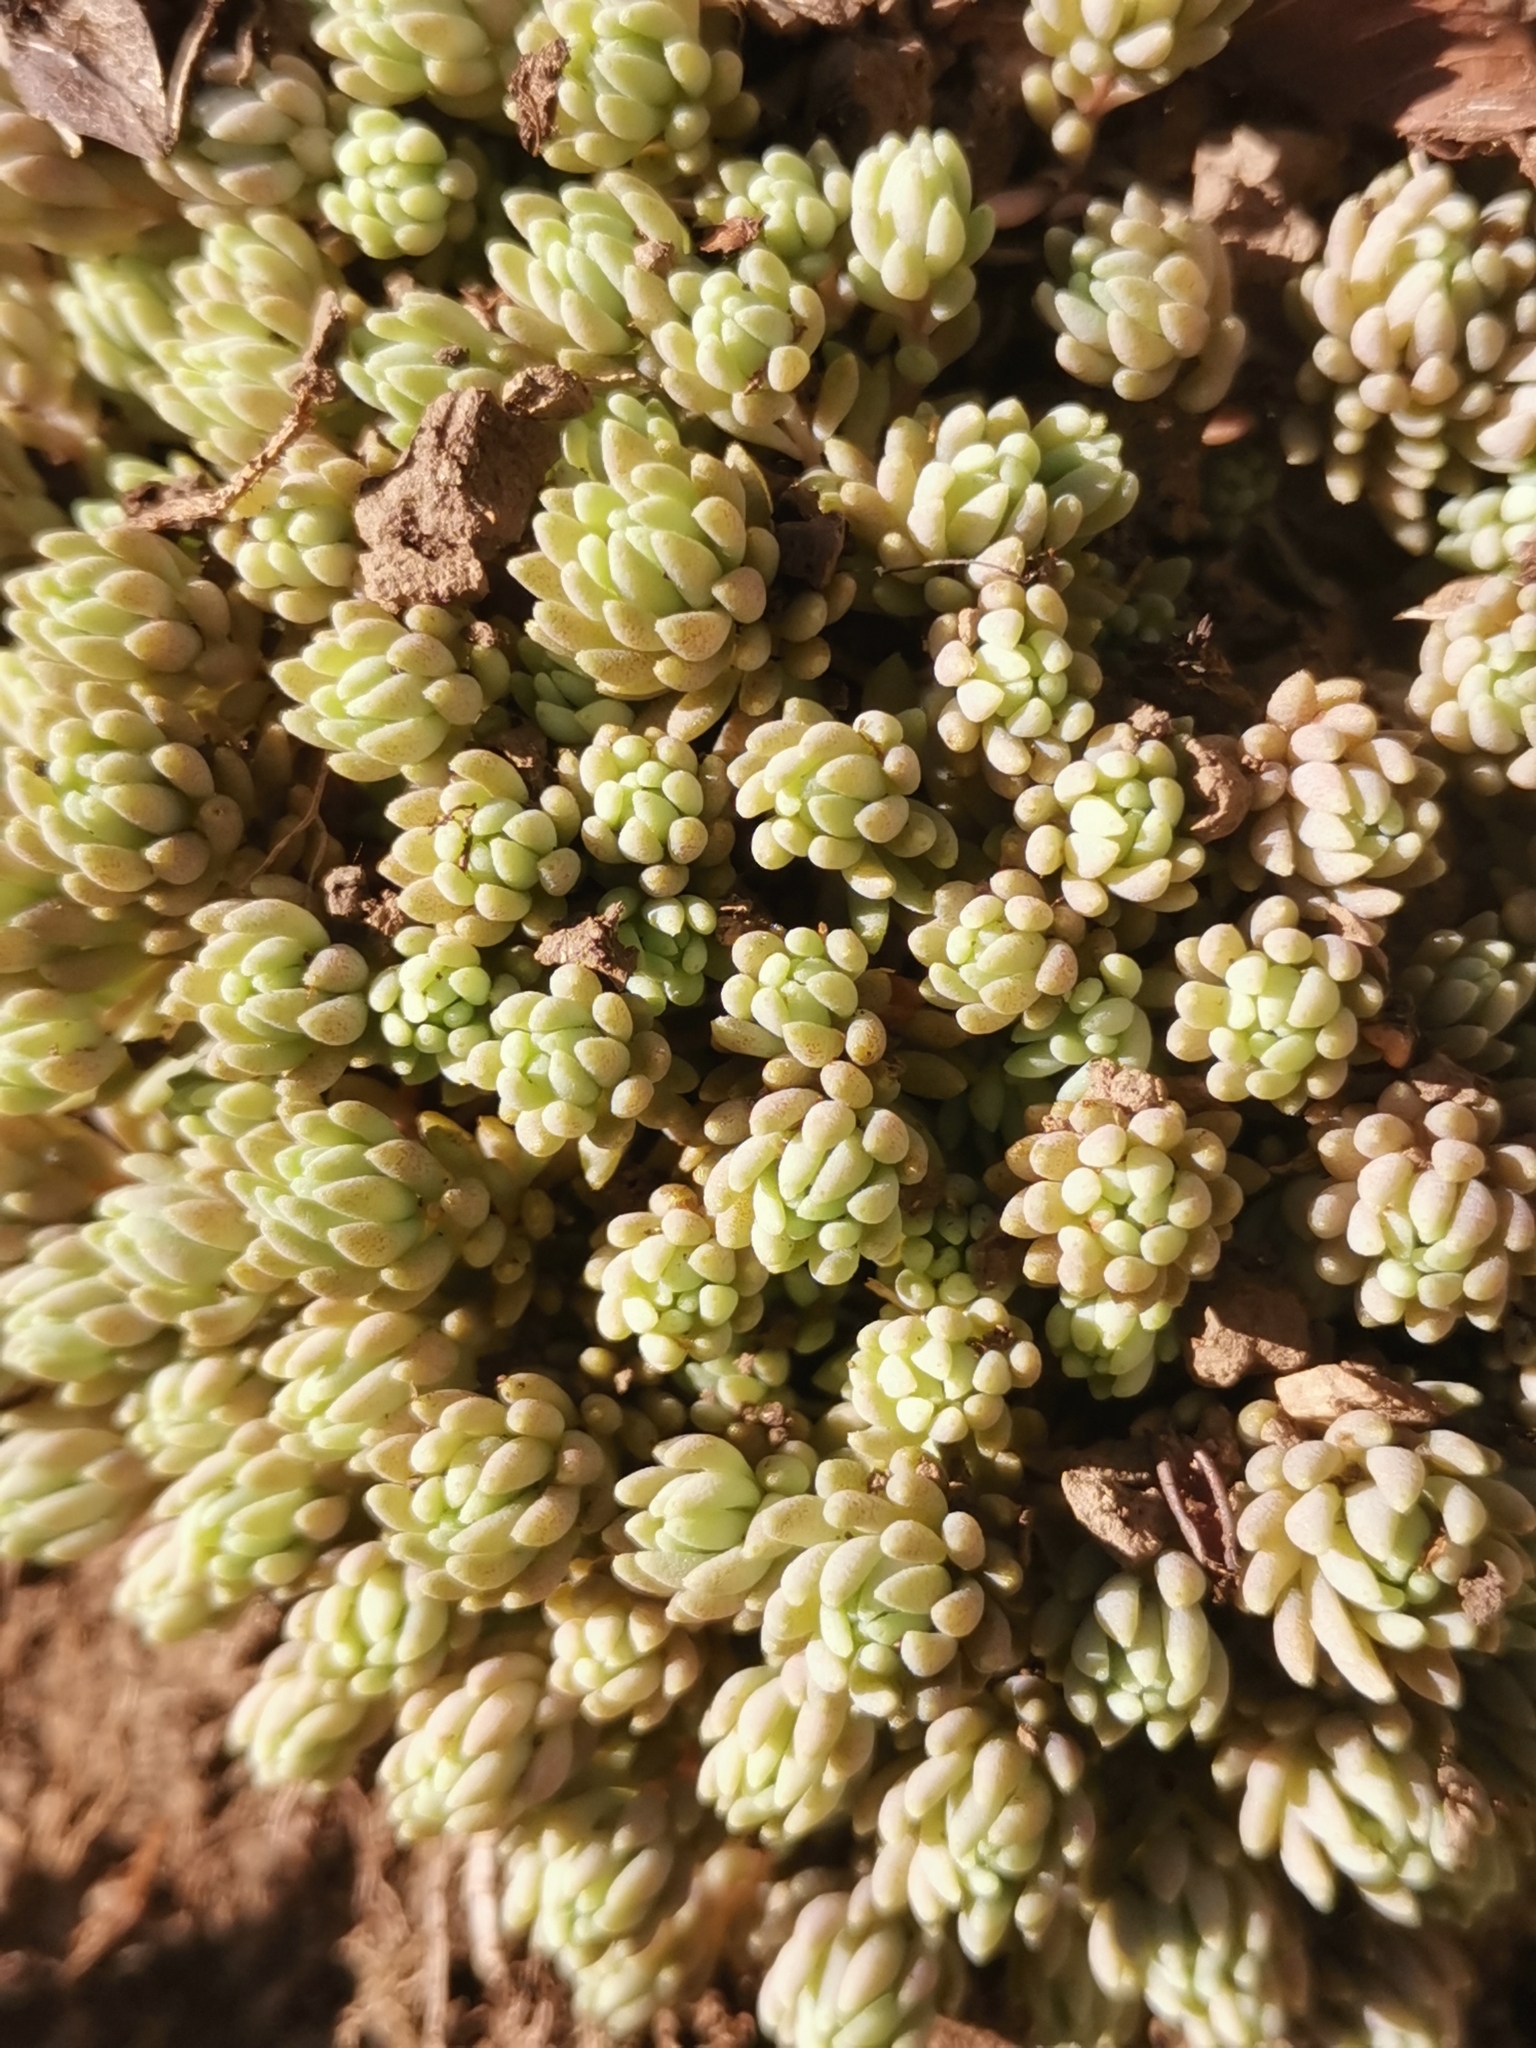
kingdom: Plantae
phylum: Tracheophyta
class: Magnoliopsida
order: Saxifragales
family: Crassulaceae
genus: Sedum
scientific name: Sedum hispanicum
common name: Spanish stonecrop
